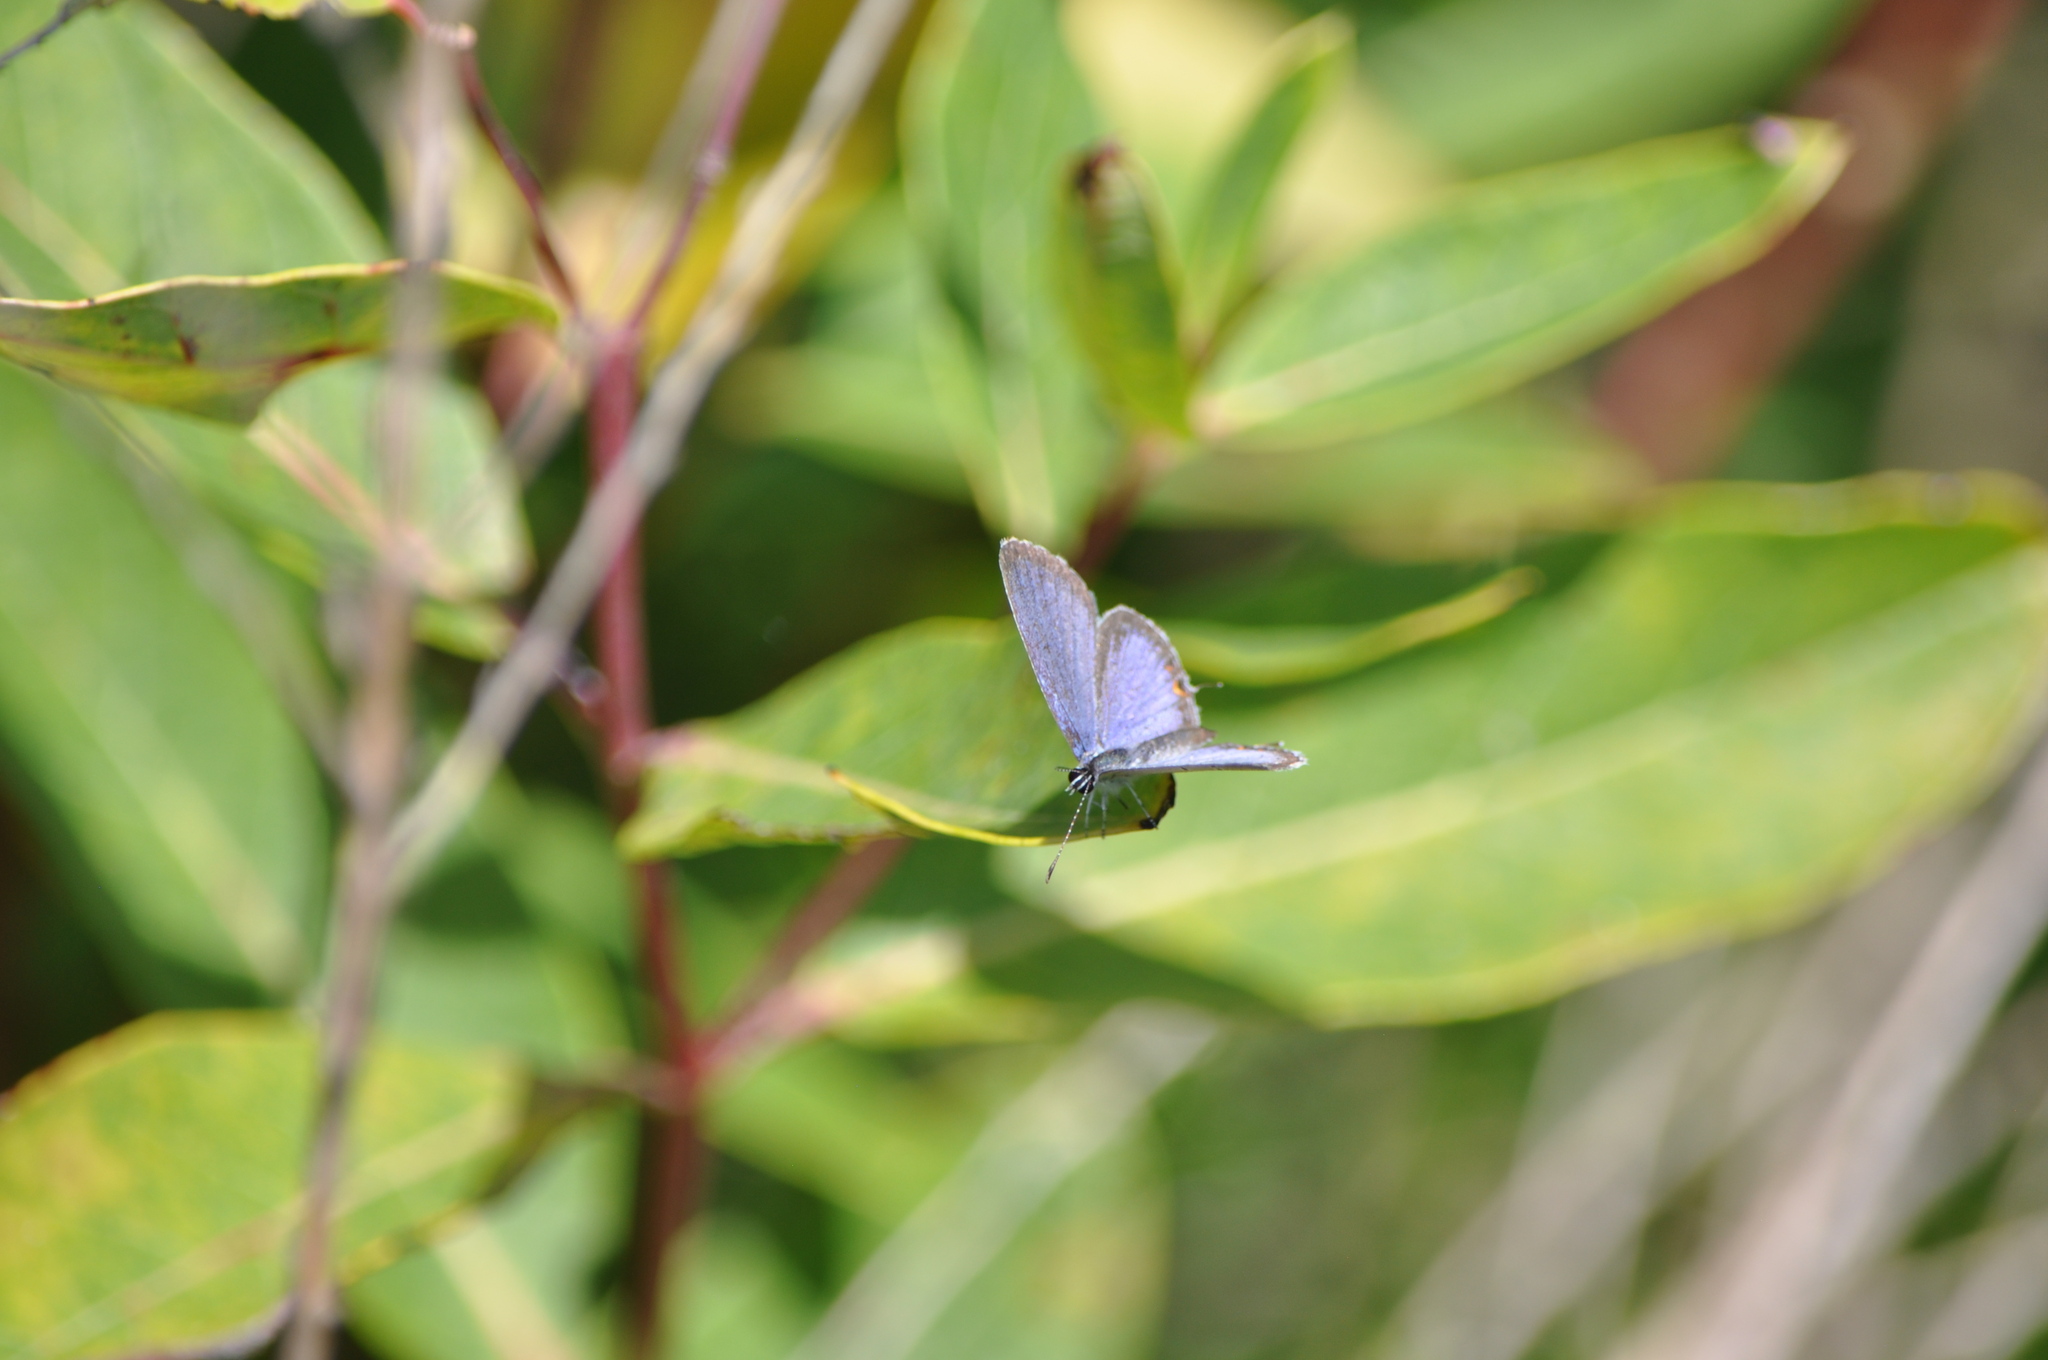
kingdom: Animalia
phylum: Arthropoda
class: Insecta
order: Lepidoptera
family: Lycaenidae
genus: Elkalyce
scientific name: Elkalyce comyntas
